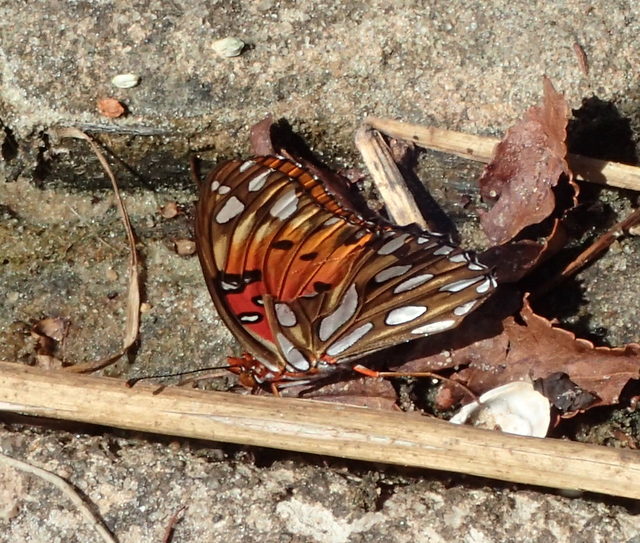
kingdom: Animalia
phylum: Arthropoda
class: Insecta
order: Lepidoptera
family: Nymphalidae
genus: Dione
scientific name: Dione vanillae
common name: Gulf fritillary
